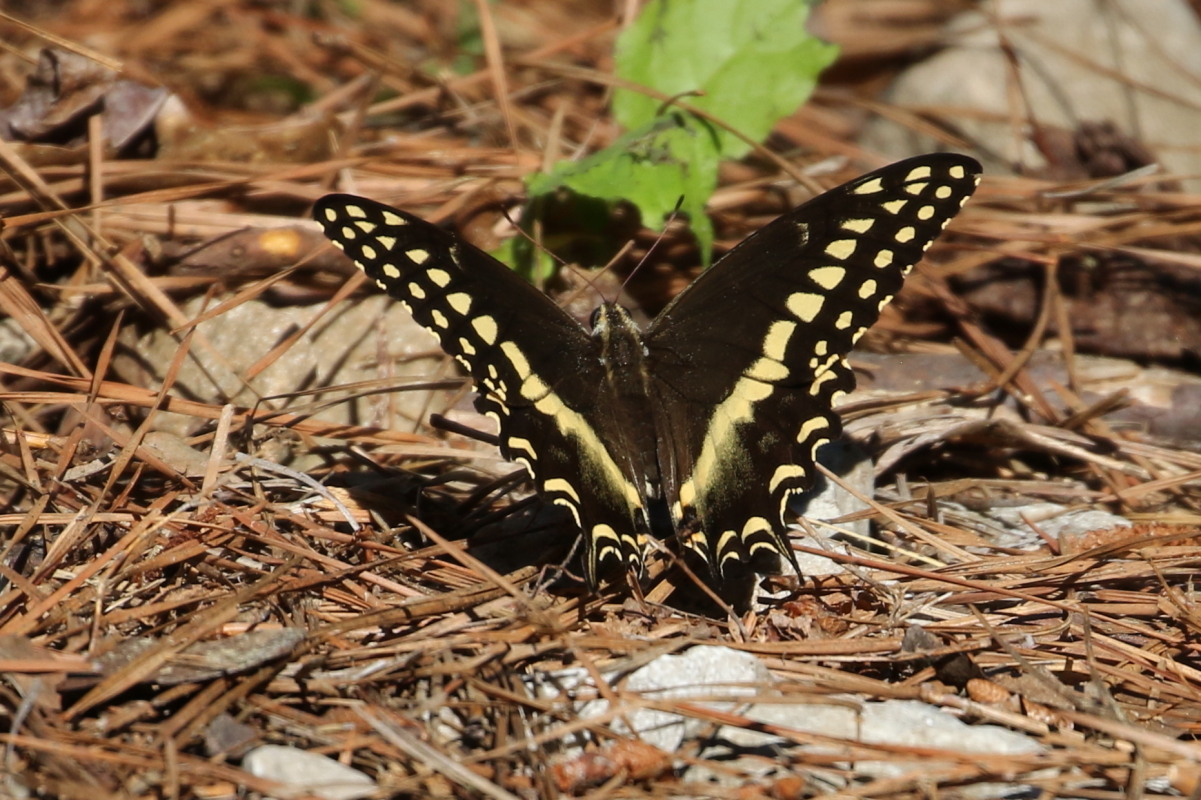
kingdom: Animalia
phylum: Arthropoda
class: Insecta
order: Lepidoptera
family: Papilionidae
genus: Papilio
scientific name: Papilio palamedes
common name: Palamedes swallowtail
